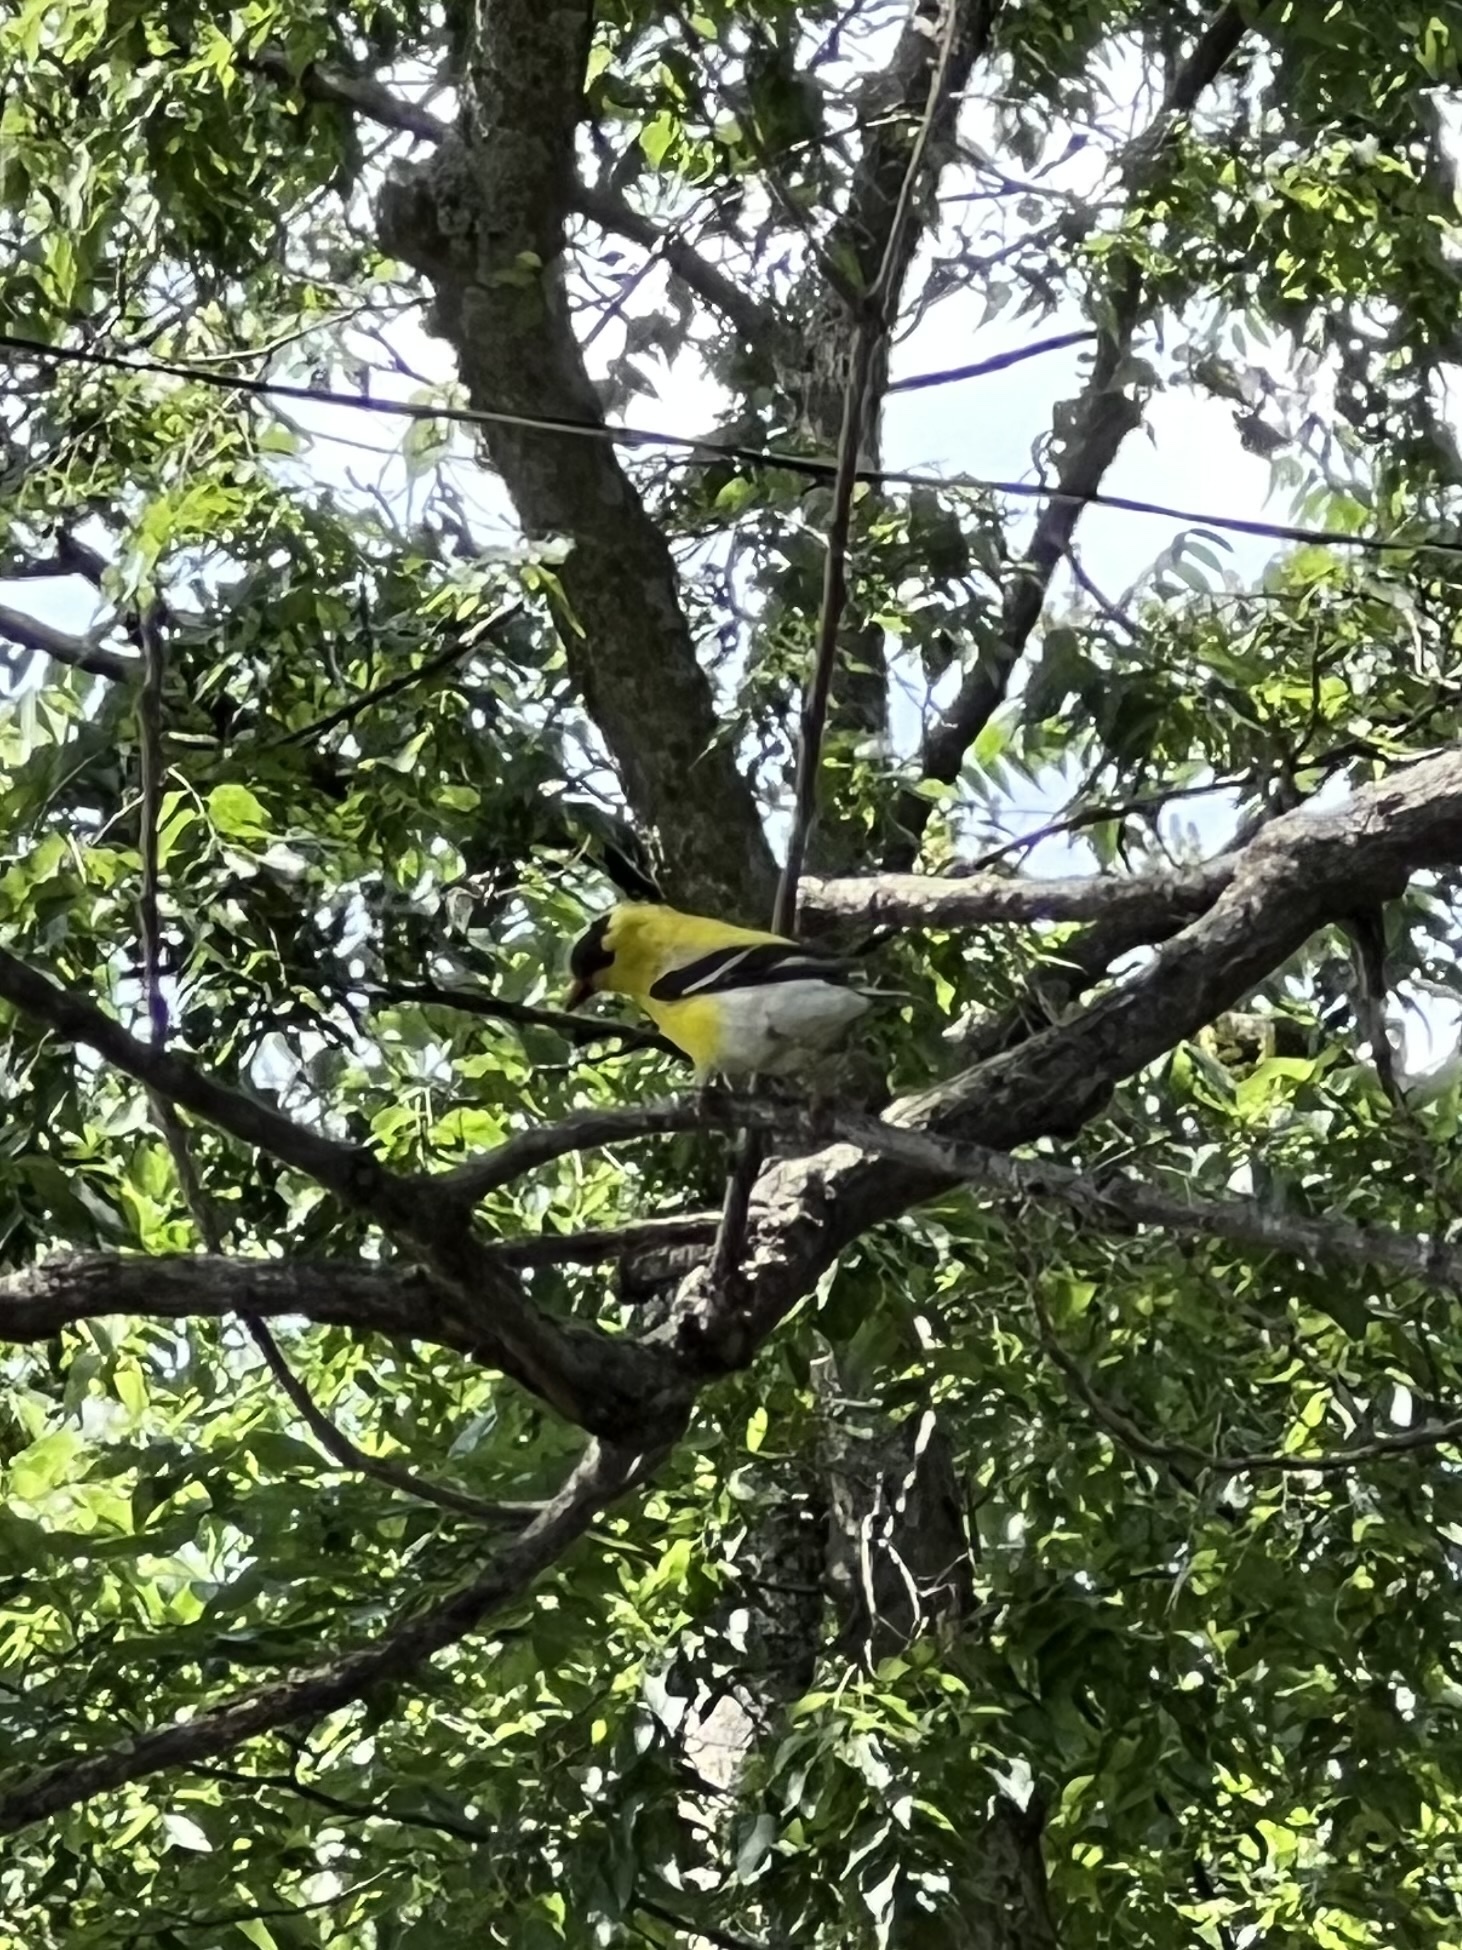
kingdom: Animalia
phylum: Chordata
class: Aves
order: Passeriformes
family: Fringillidae
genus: Spinus
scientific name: Spinus tristis
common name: American goldfinch
